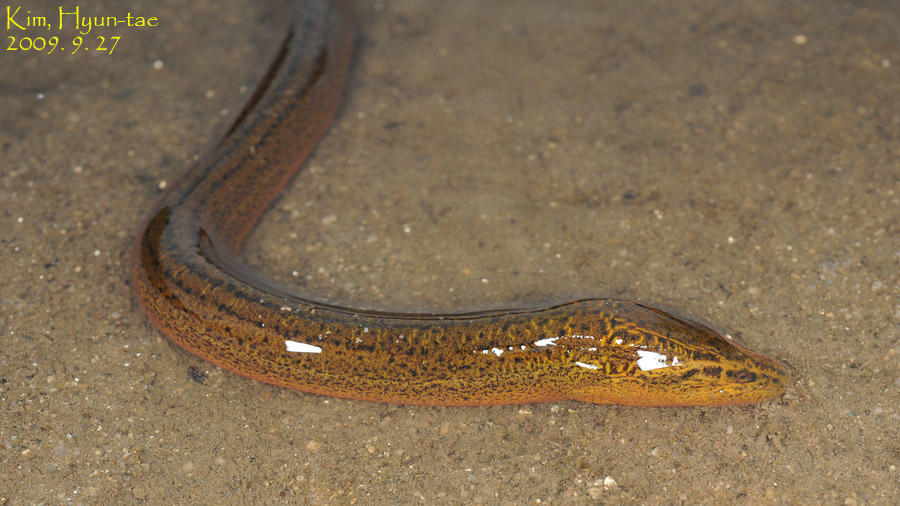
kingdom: Animalia
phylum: Chordata
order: Synbranchiformes
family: Synbranchidae
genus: Monopterus
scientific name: Monopterus albus
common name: Asian swamp eel
